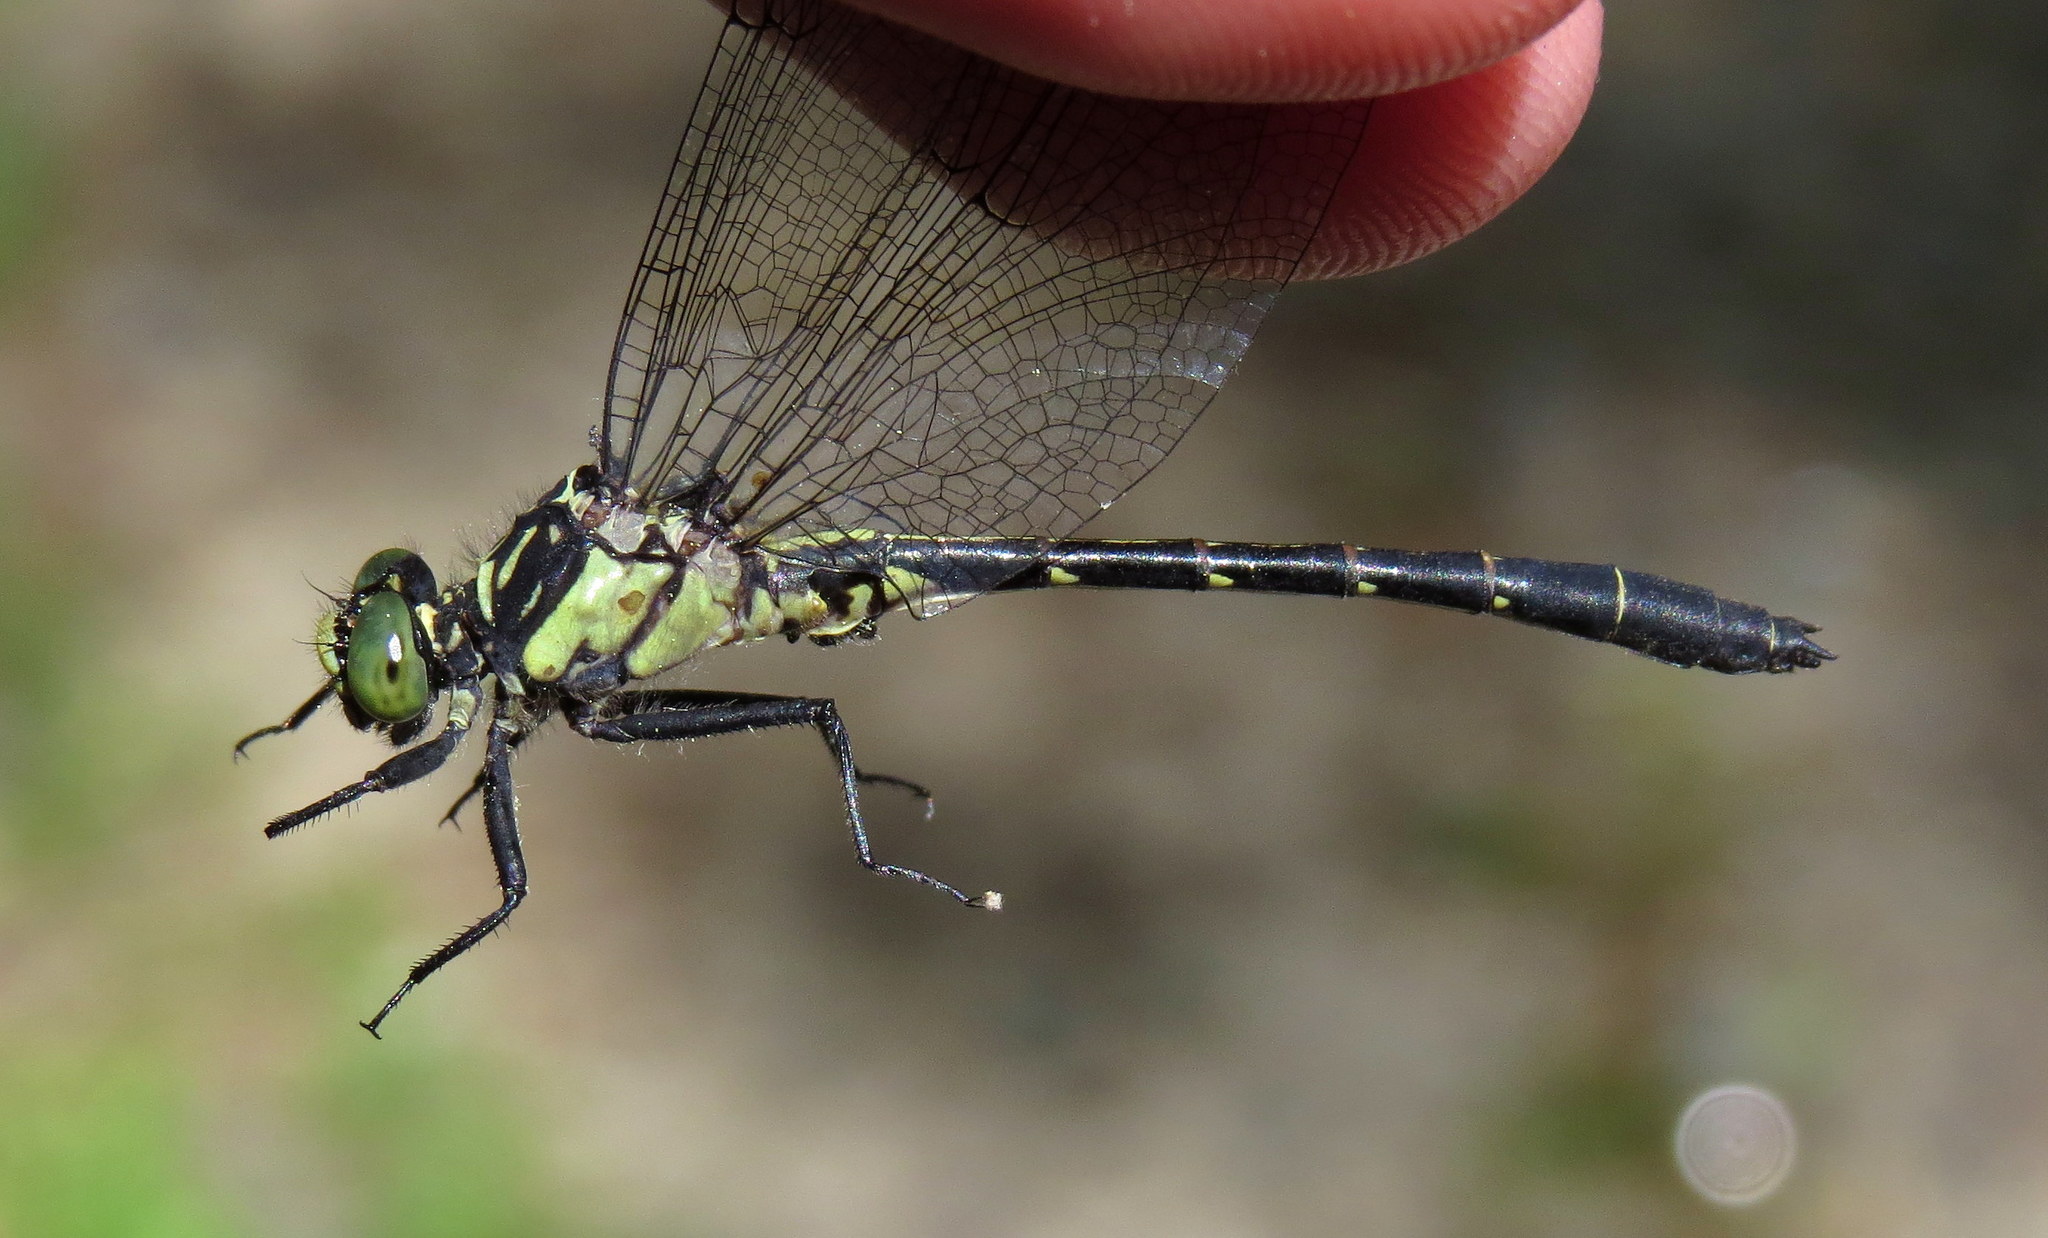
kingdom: Animalia
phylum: Arthropoda
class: Insecta
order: Odonata
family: Gomphidae
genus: Lanthus
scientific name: Lanthus vernalis
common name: Southern pygmy clubtail
